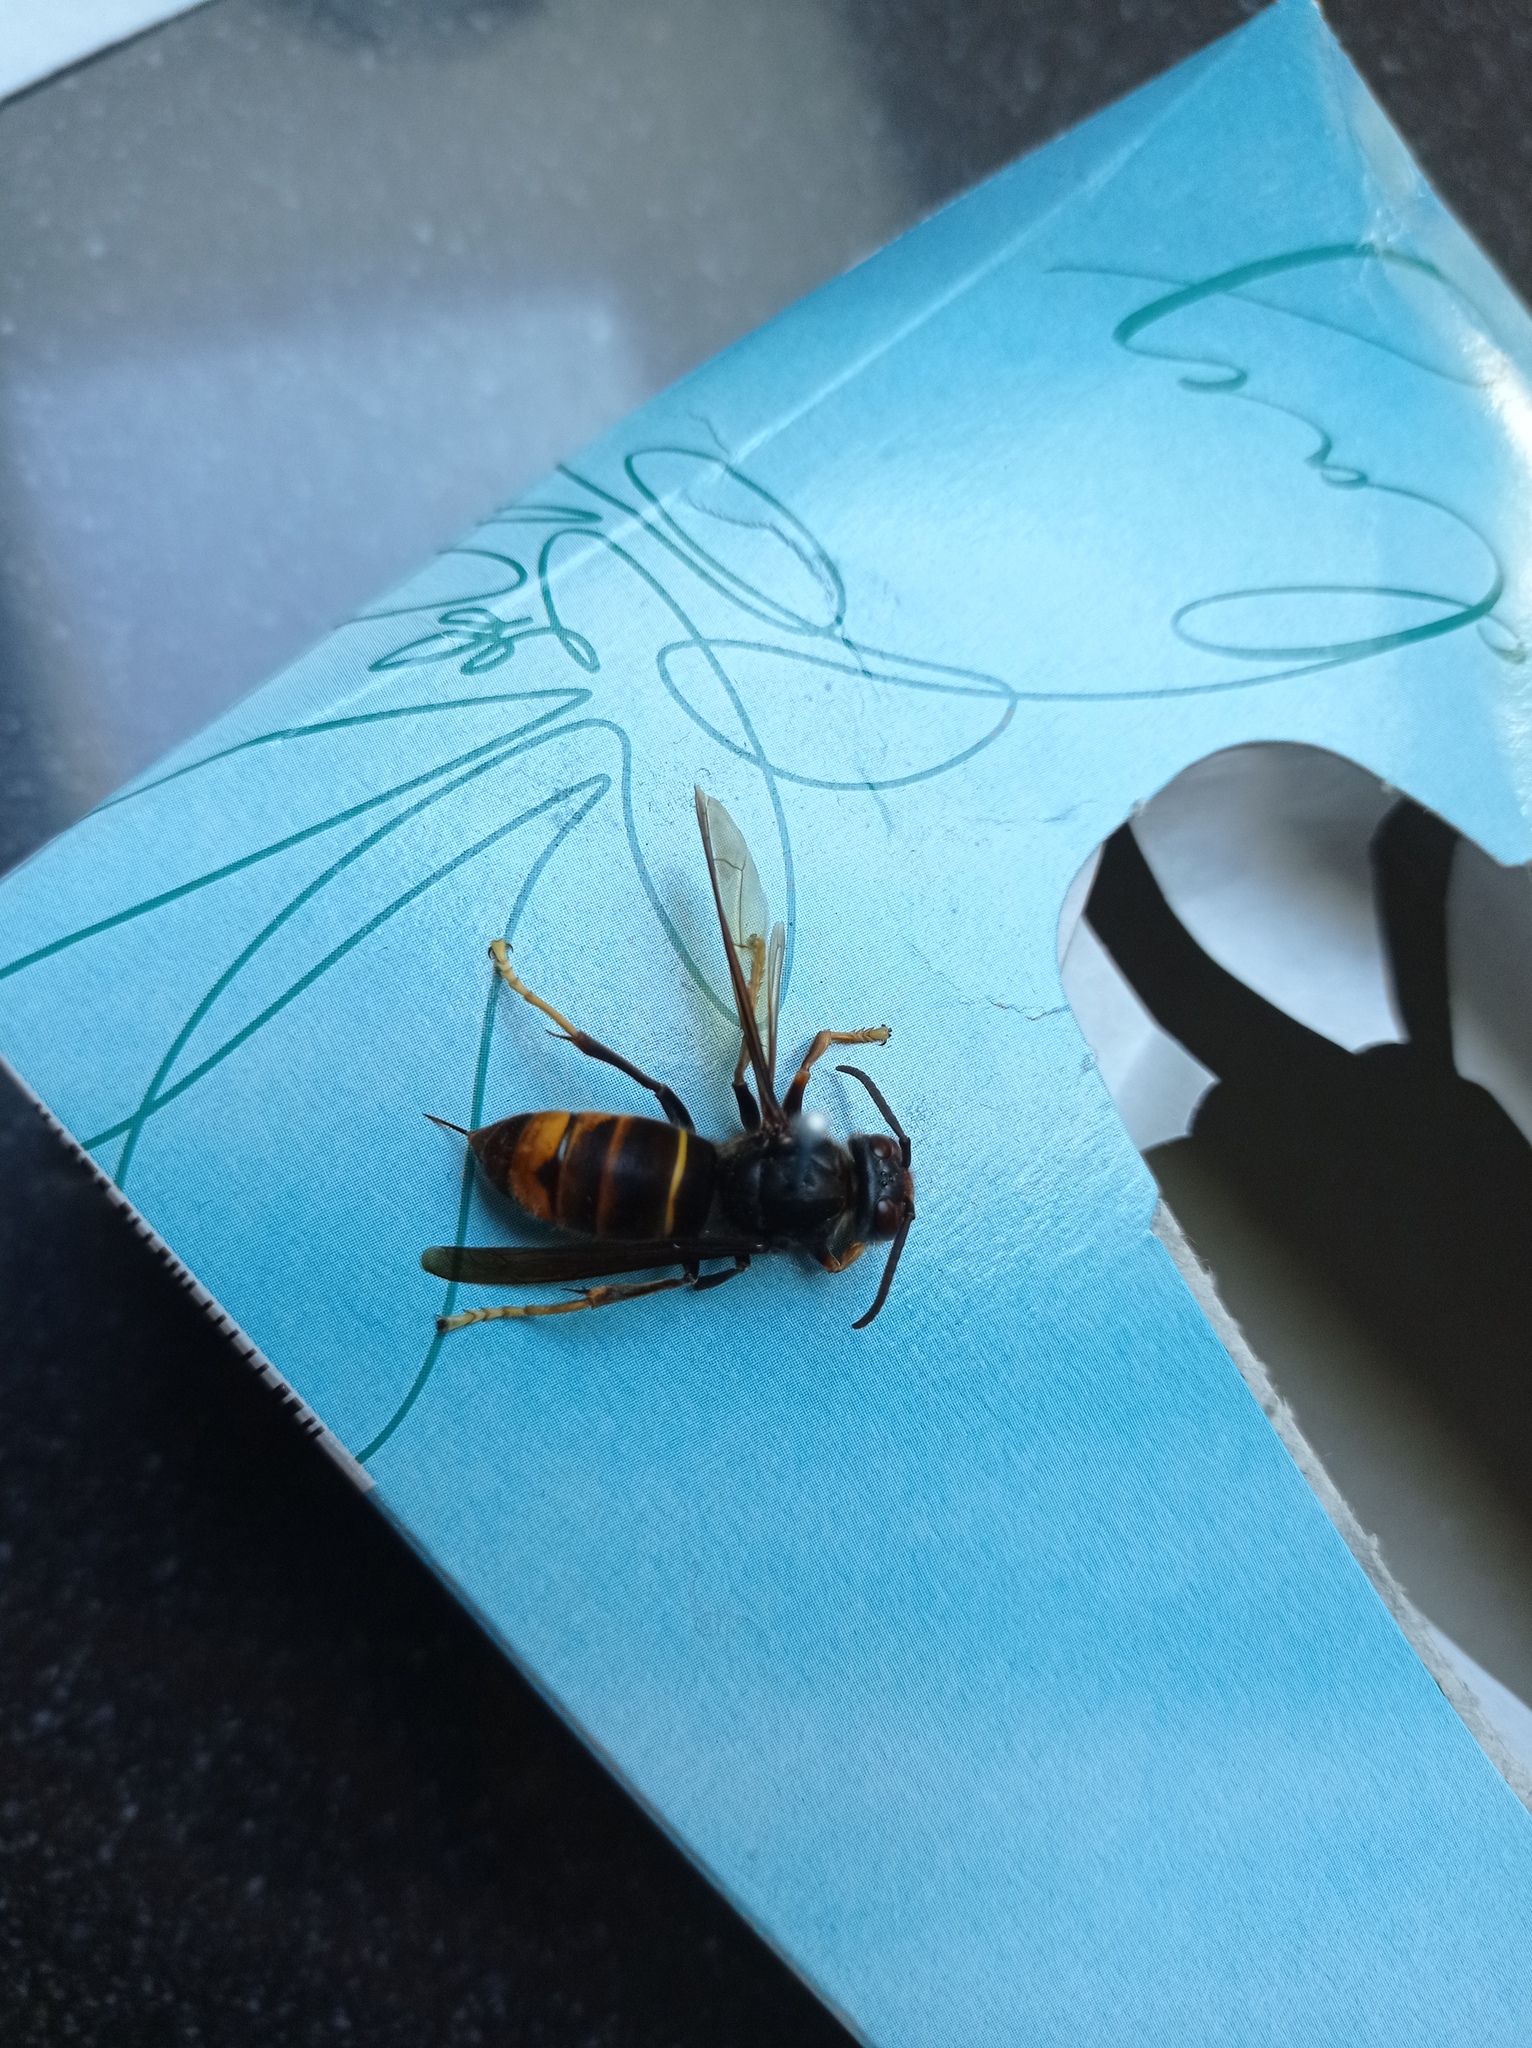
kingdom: Animalia
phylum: Arthropoda
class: Insecta
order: Hymenoptera
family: Vespidae
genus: Vespa
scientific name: Vespa velutina
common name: Asian hornet
